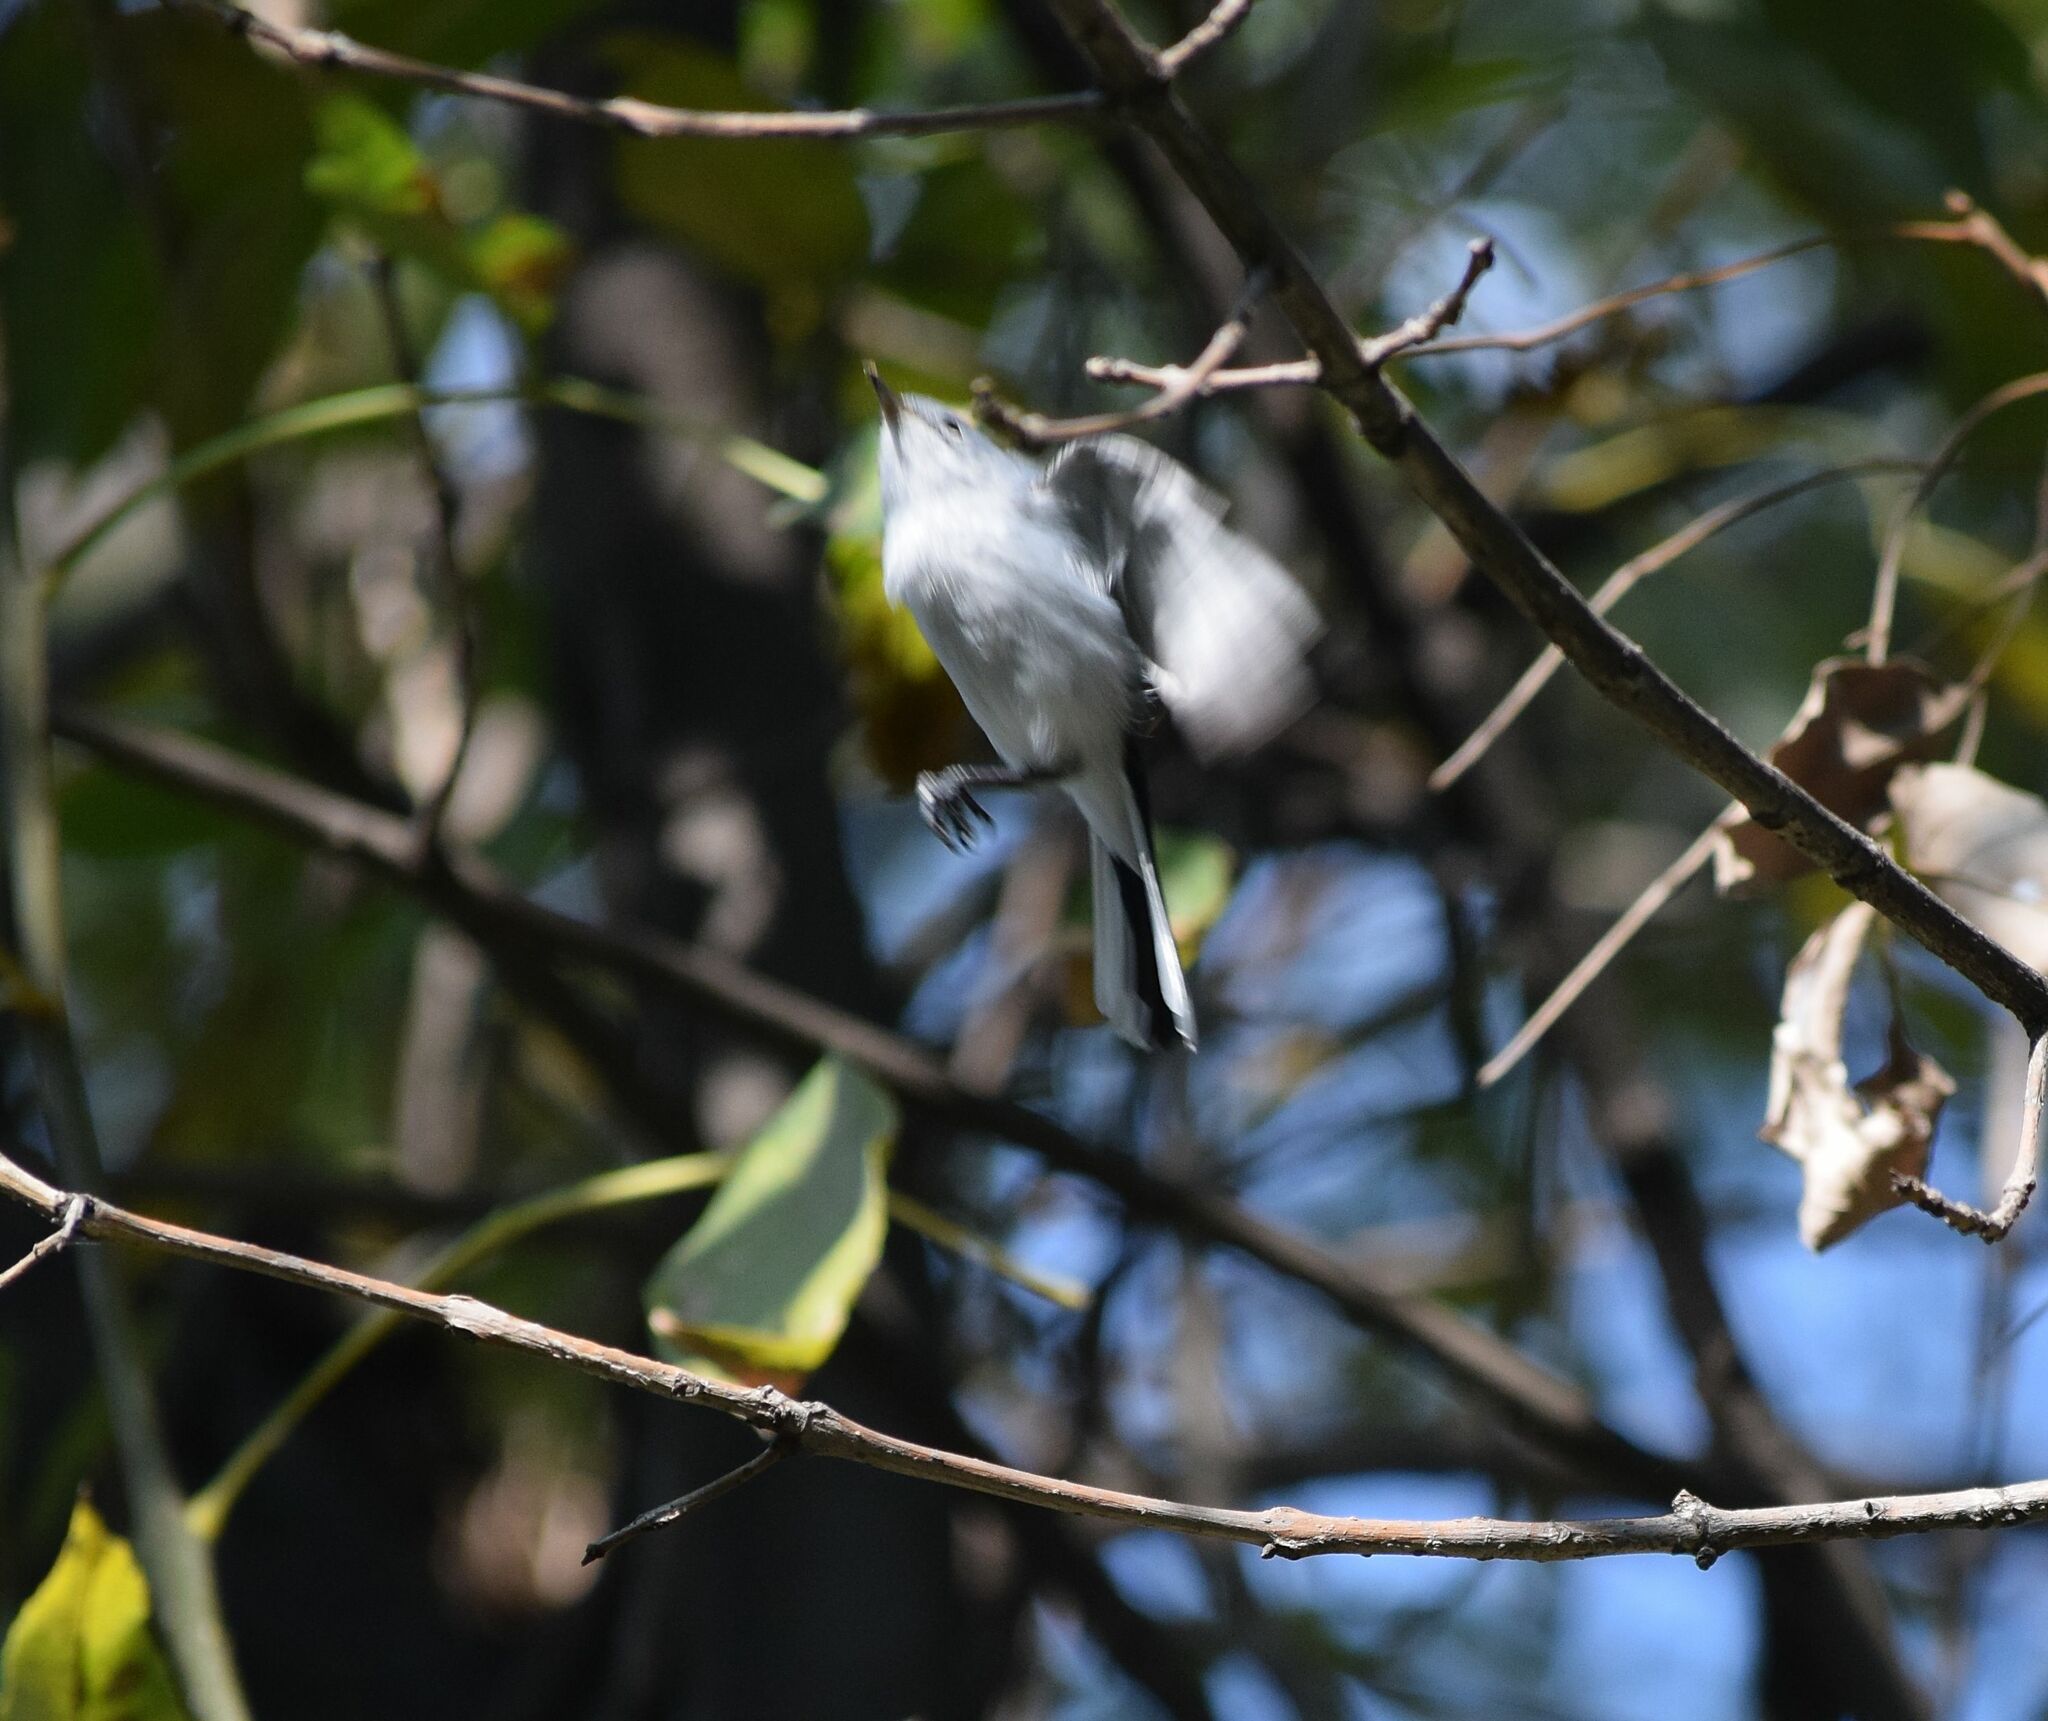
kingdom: Animalia
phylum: Chordata
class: Aves
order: Passeriformes
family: Polioptilidae
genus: Polioptila
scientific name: Polioptila caerulea
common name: Blue-gray gnatcatcher
